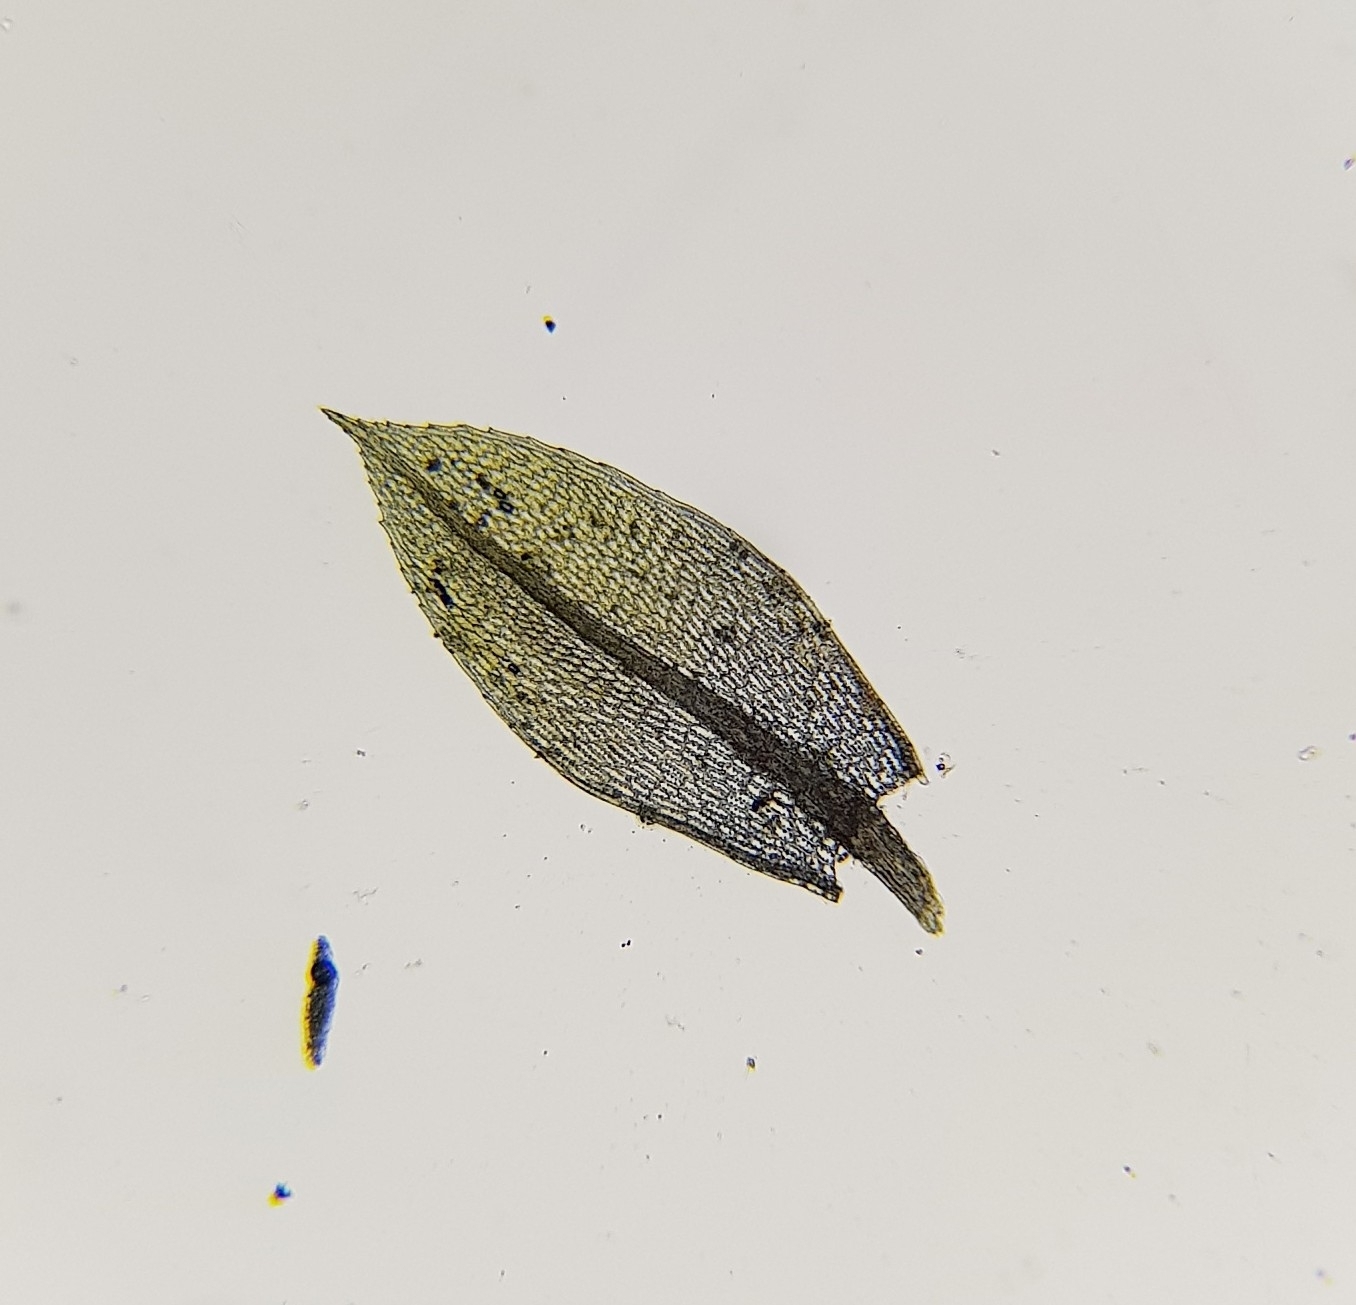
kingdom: Plantae
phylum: Bryophyta
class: Bryopsida
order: Bryales
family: Bryaceae
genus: Gemmabryum
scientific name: Gemmabryum dichotomum
